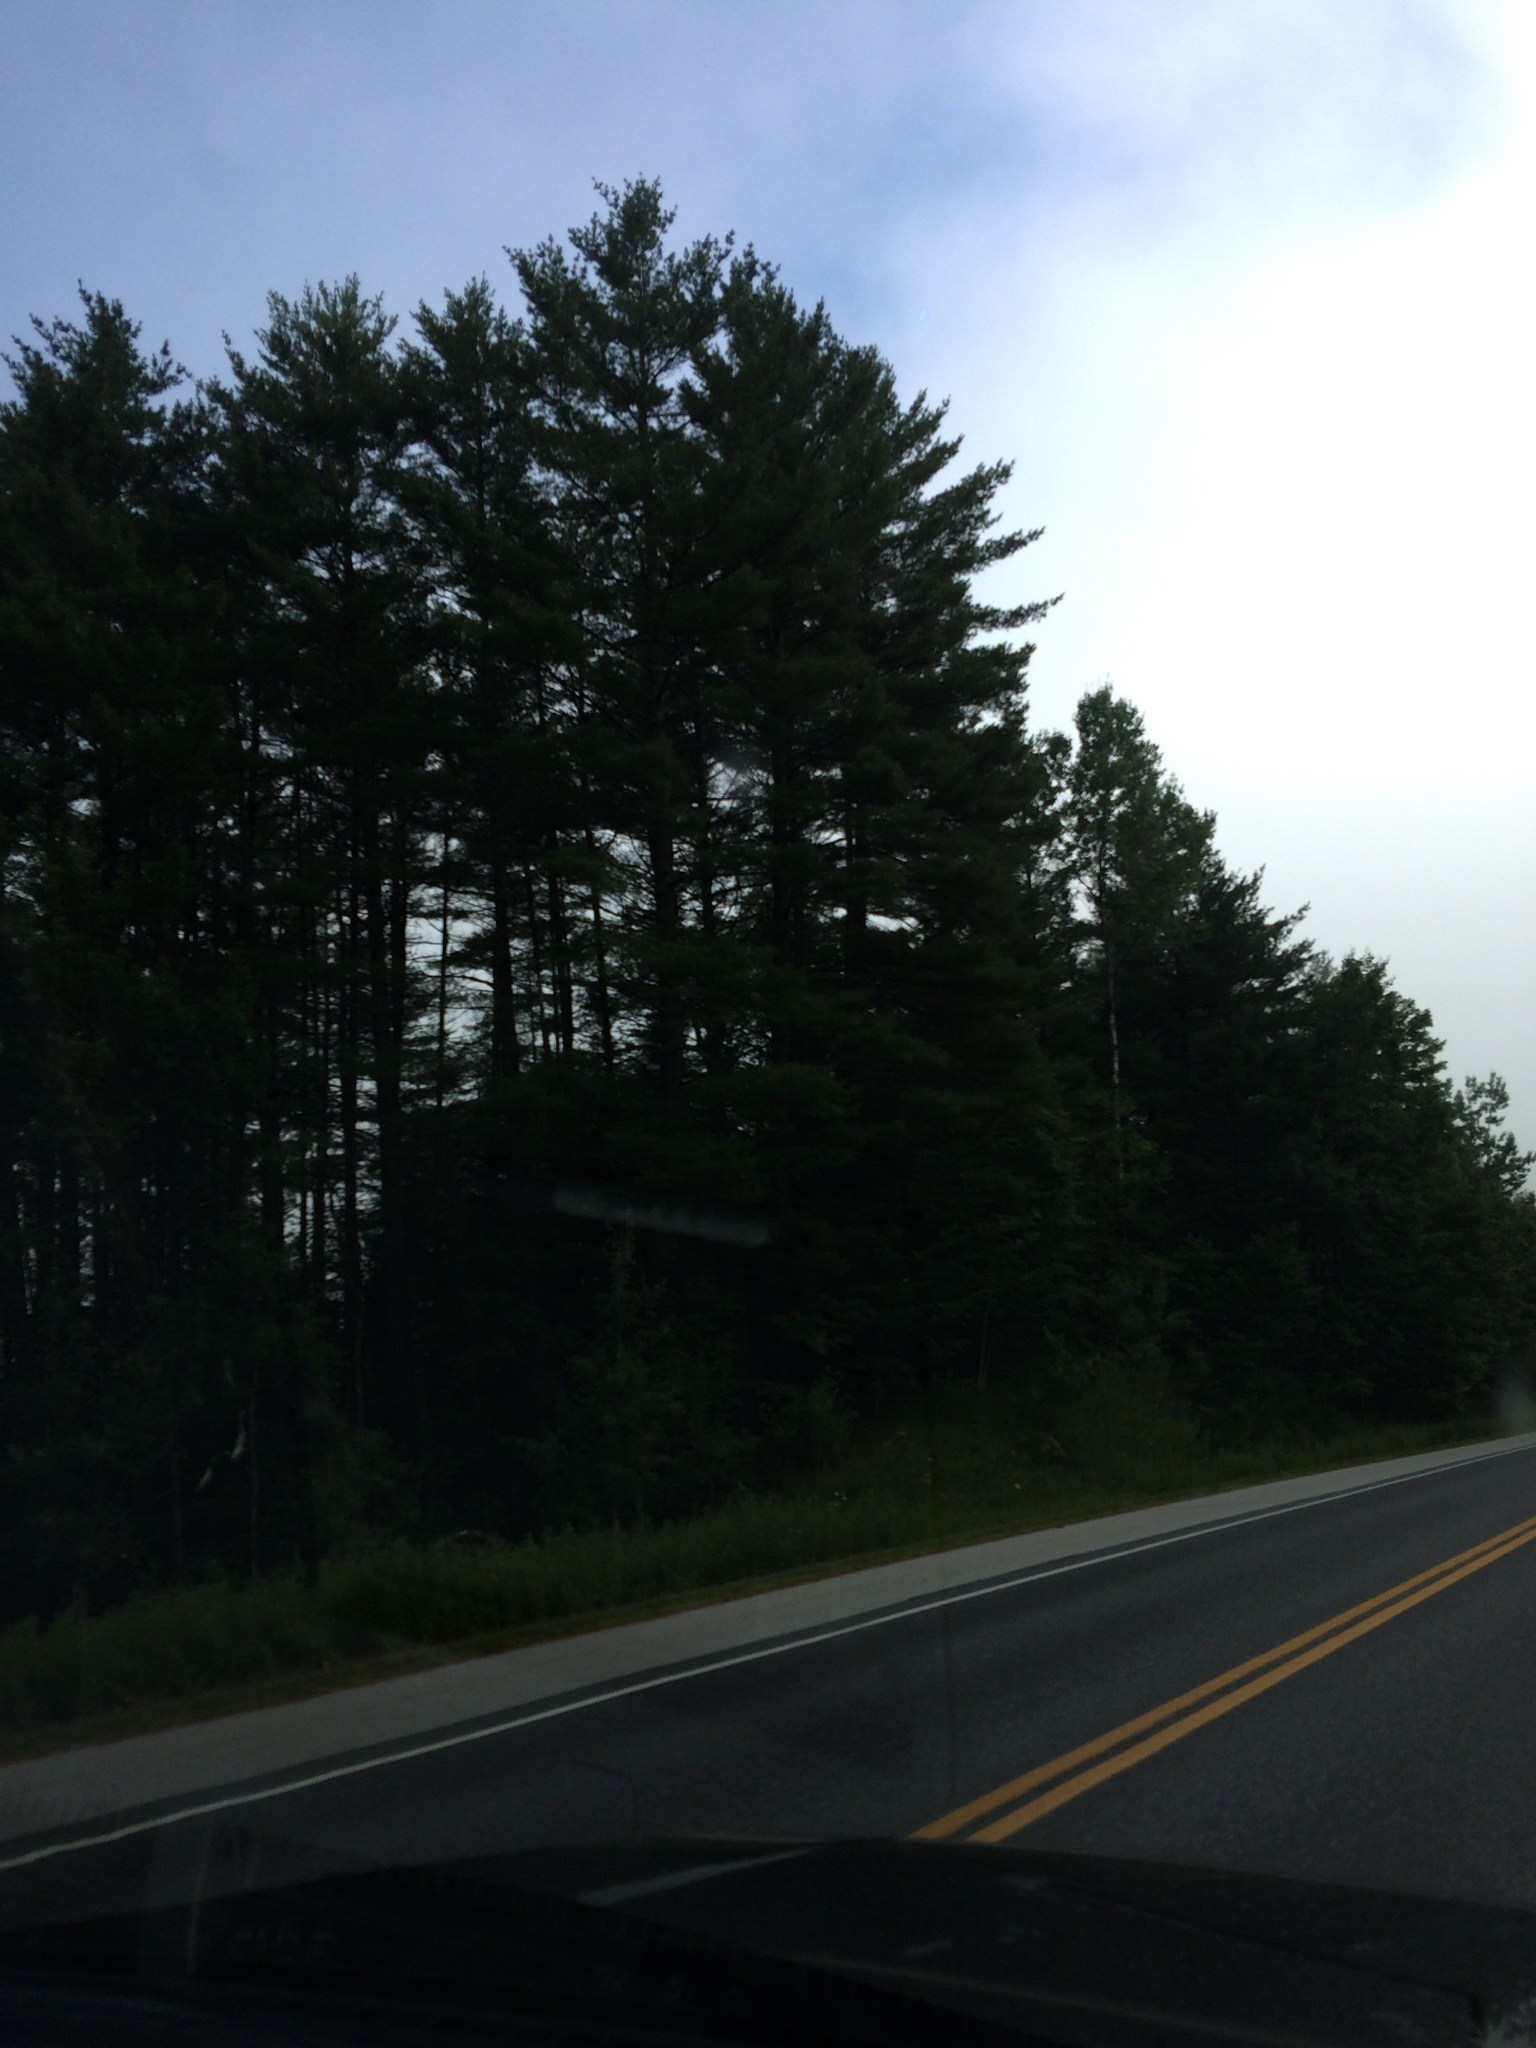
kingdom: Plantae
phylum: Tracheophyta
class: Pinopsida
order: Pinales
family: Pinaceae
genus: Pinus
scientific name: Pinus strobus
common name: Weymouth pine
